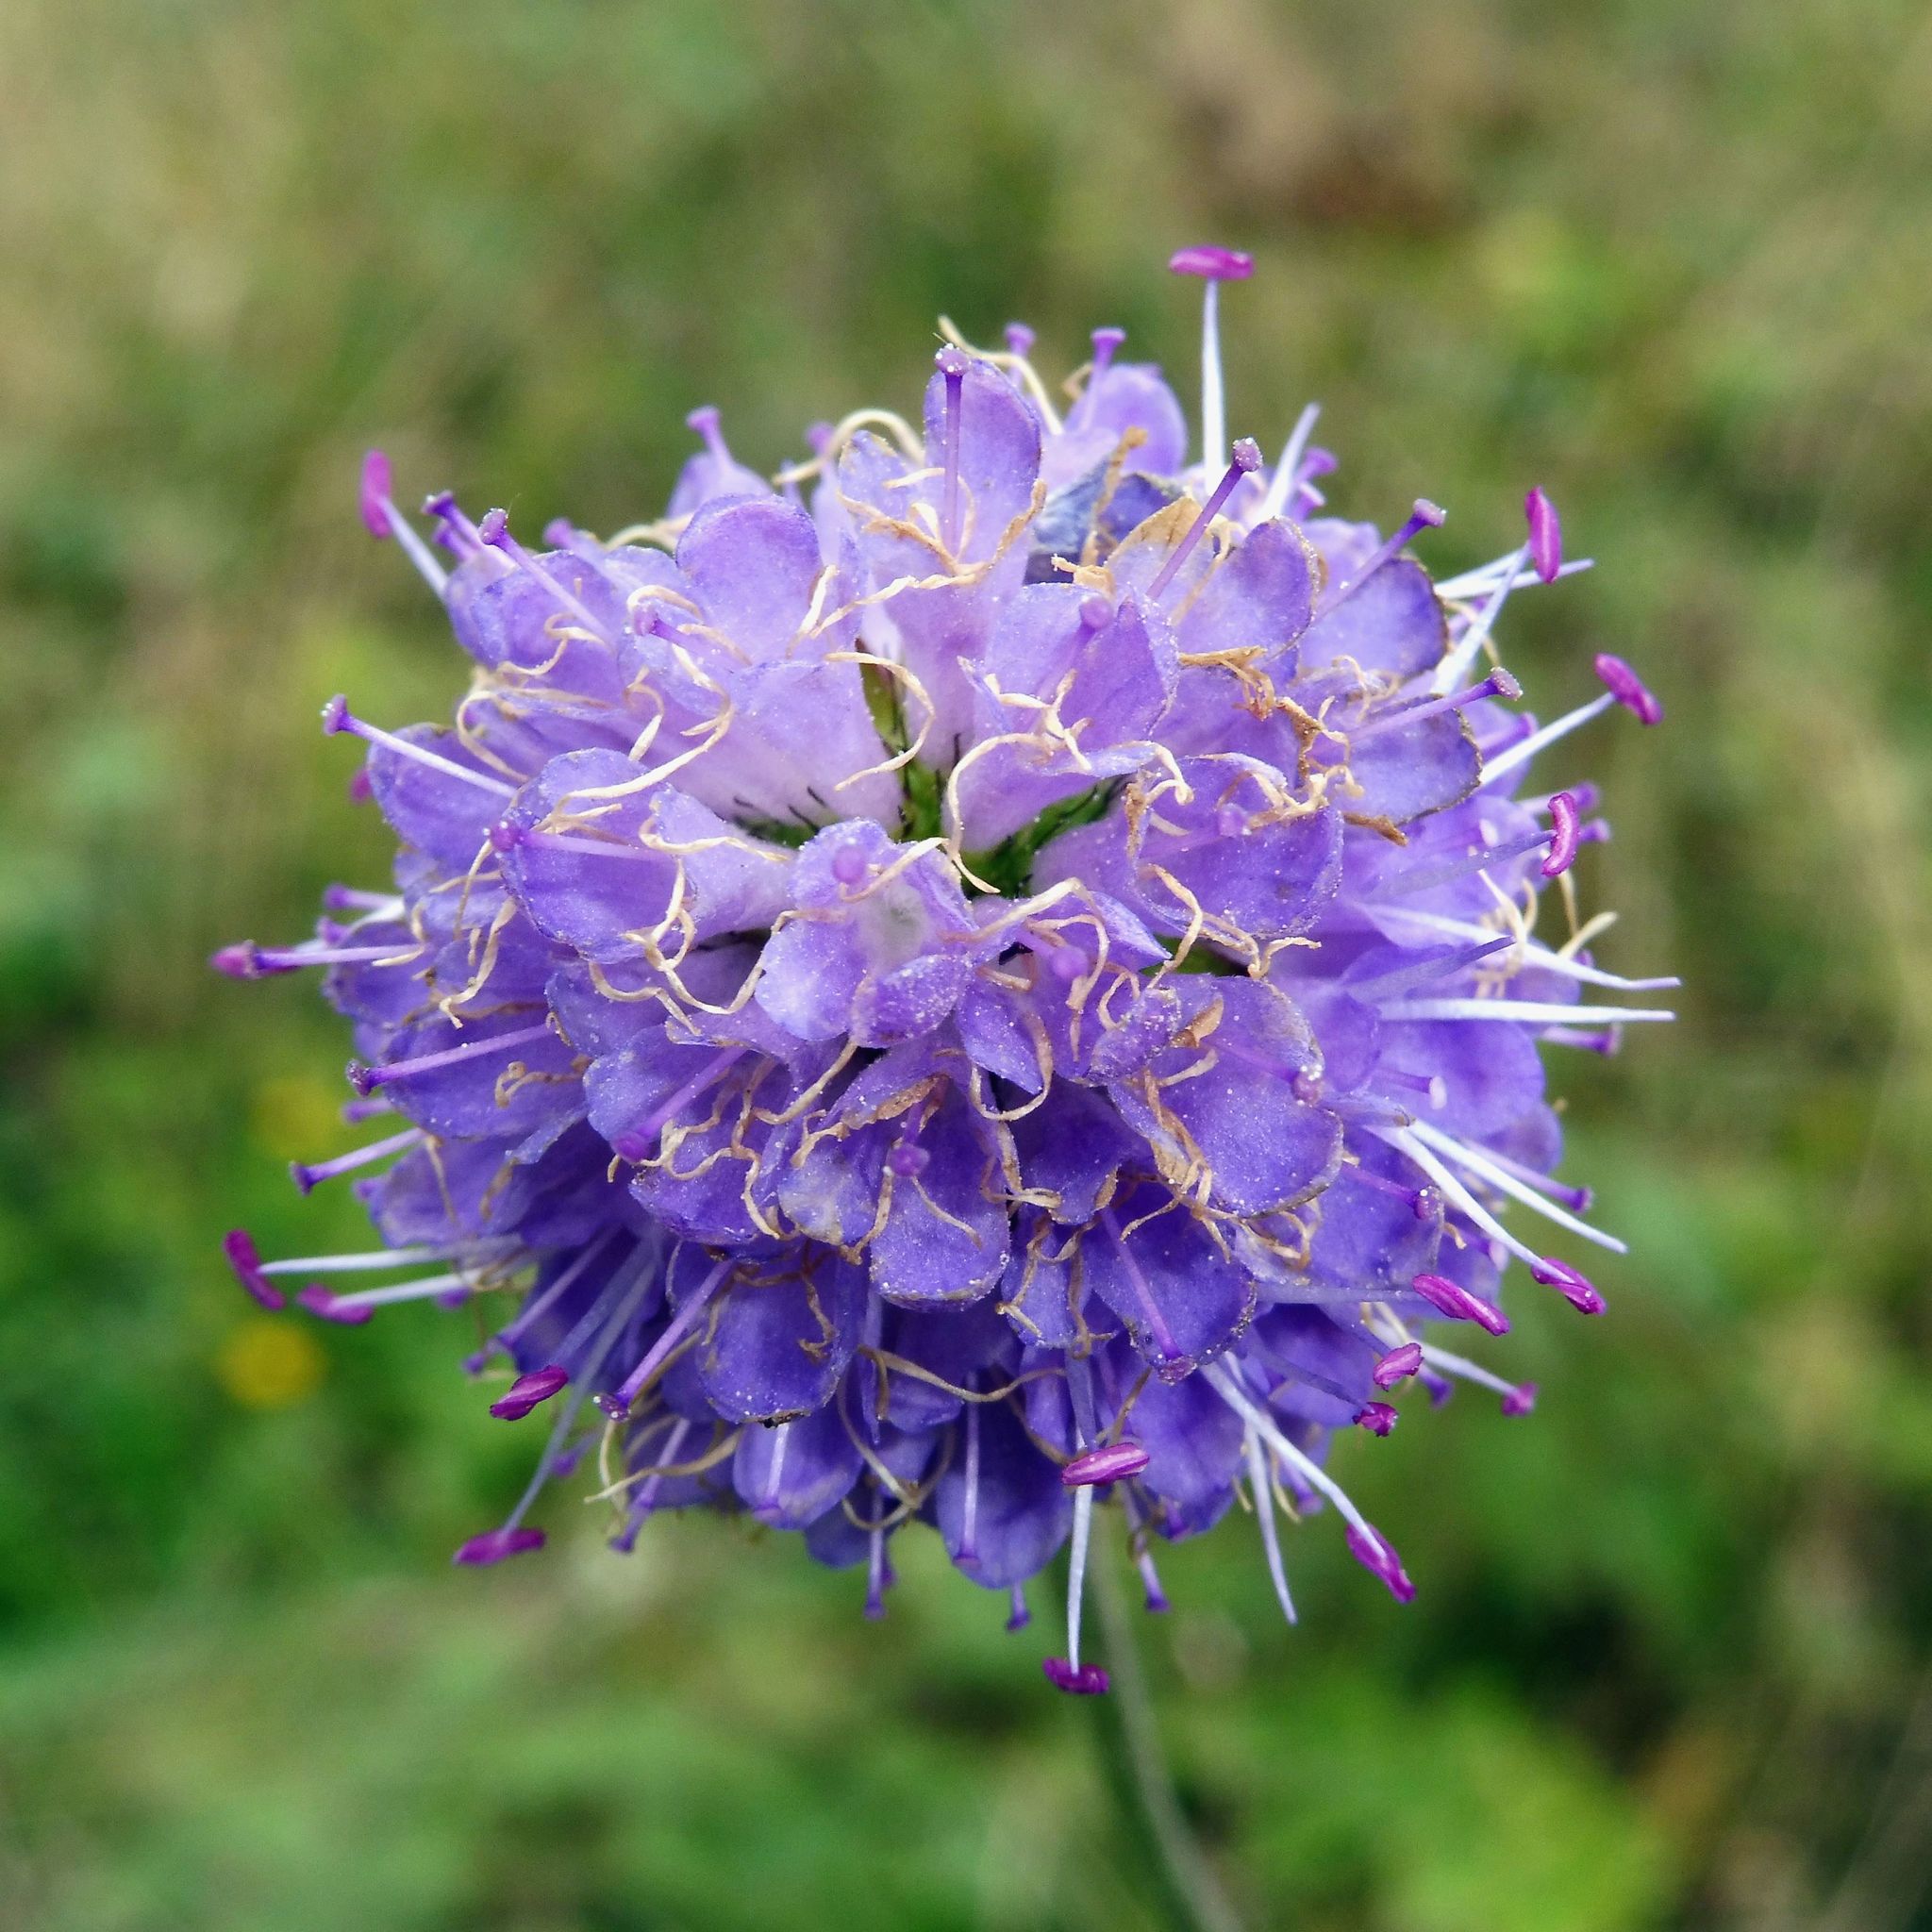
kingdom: Plantae
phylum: Tracheophyta
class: Magnoliopsida
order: Dipsacales
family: Caprifoliaceae
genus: Succisa
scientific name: Succisa pratensis
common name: Devil's-bit
